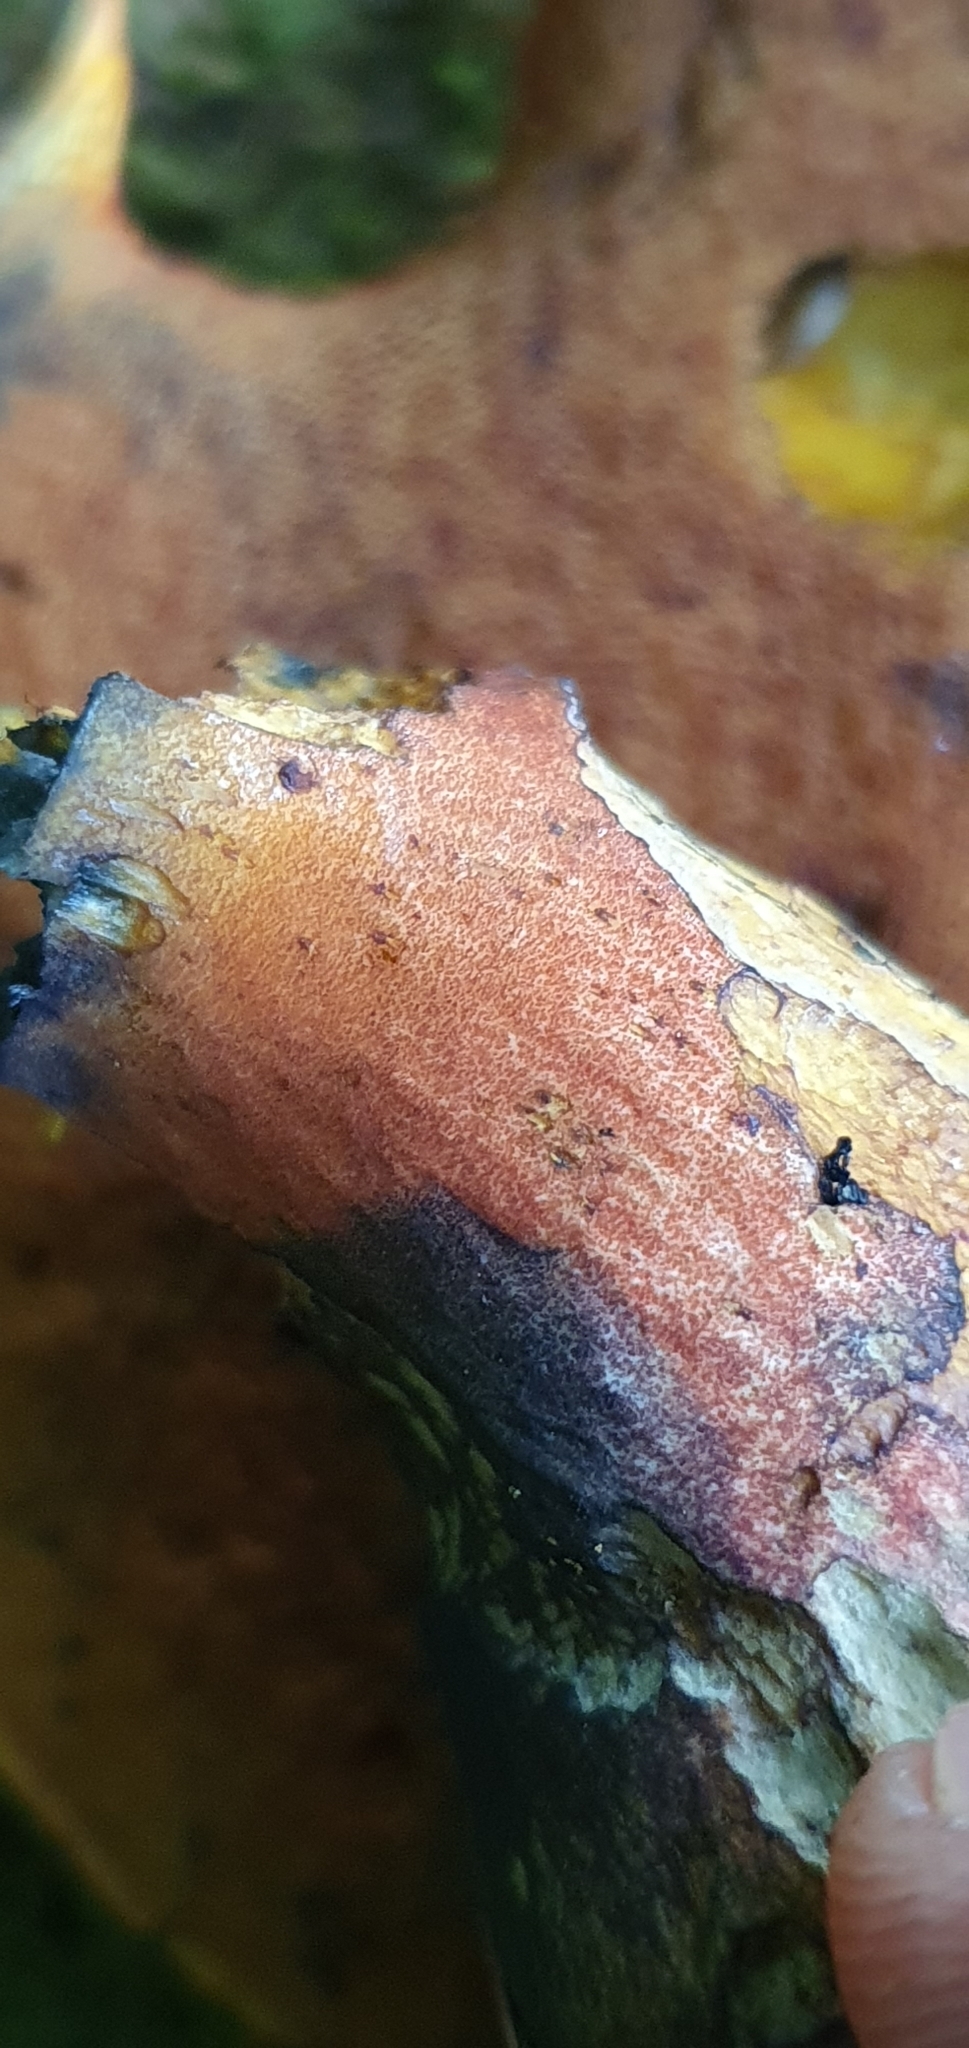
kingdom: Fungi
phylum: Basidiomycota
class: Agaricomycetes
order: Boletales
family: Boletaceae
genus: Neoboletus
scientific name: Neoboletus erythropus
